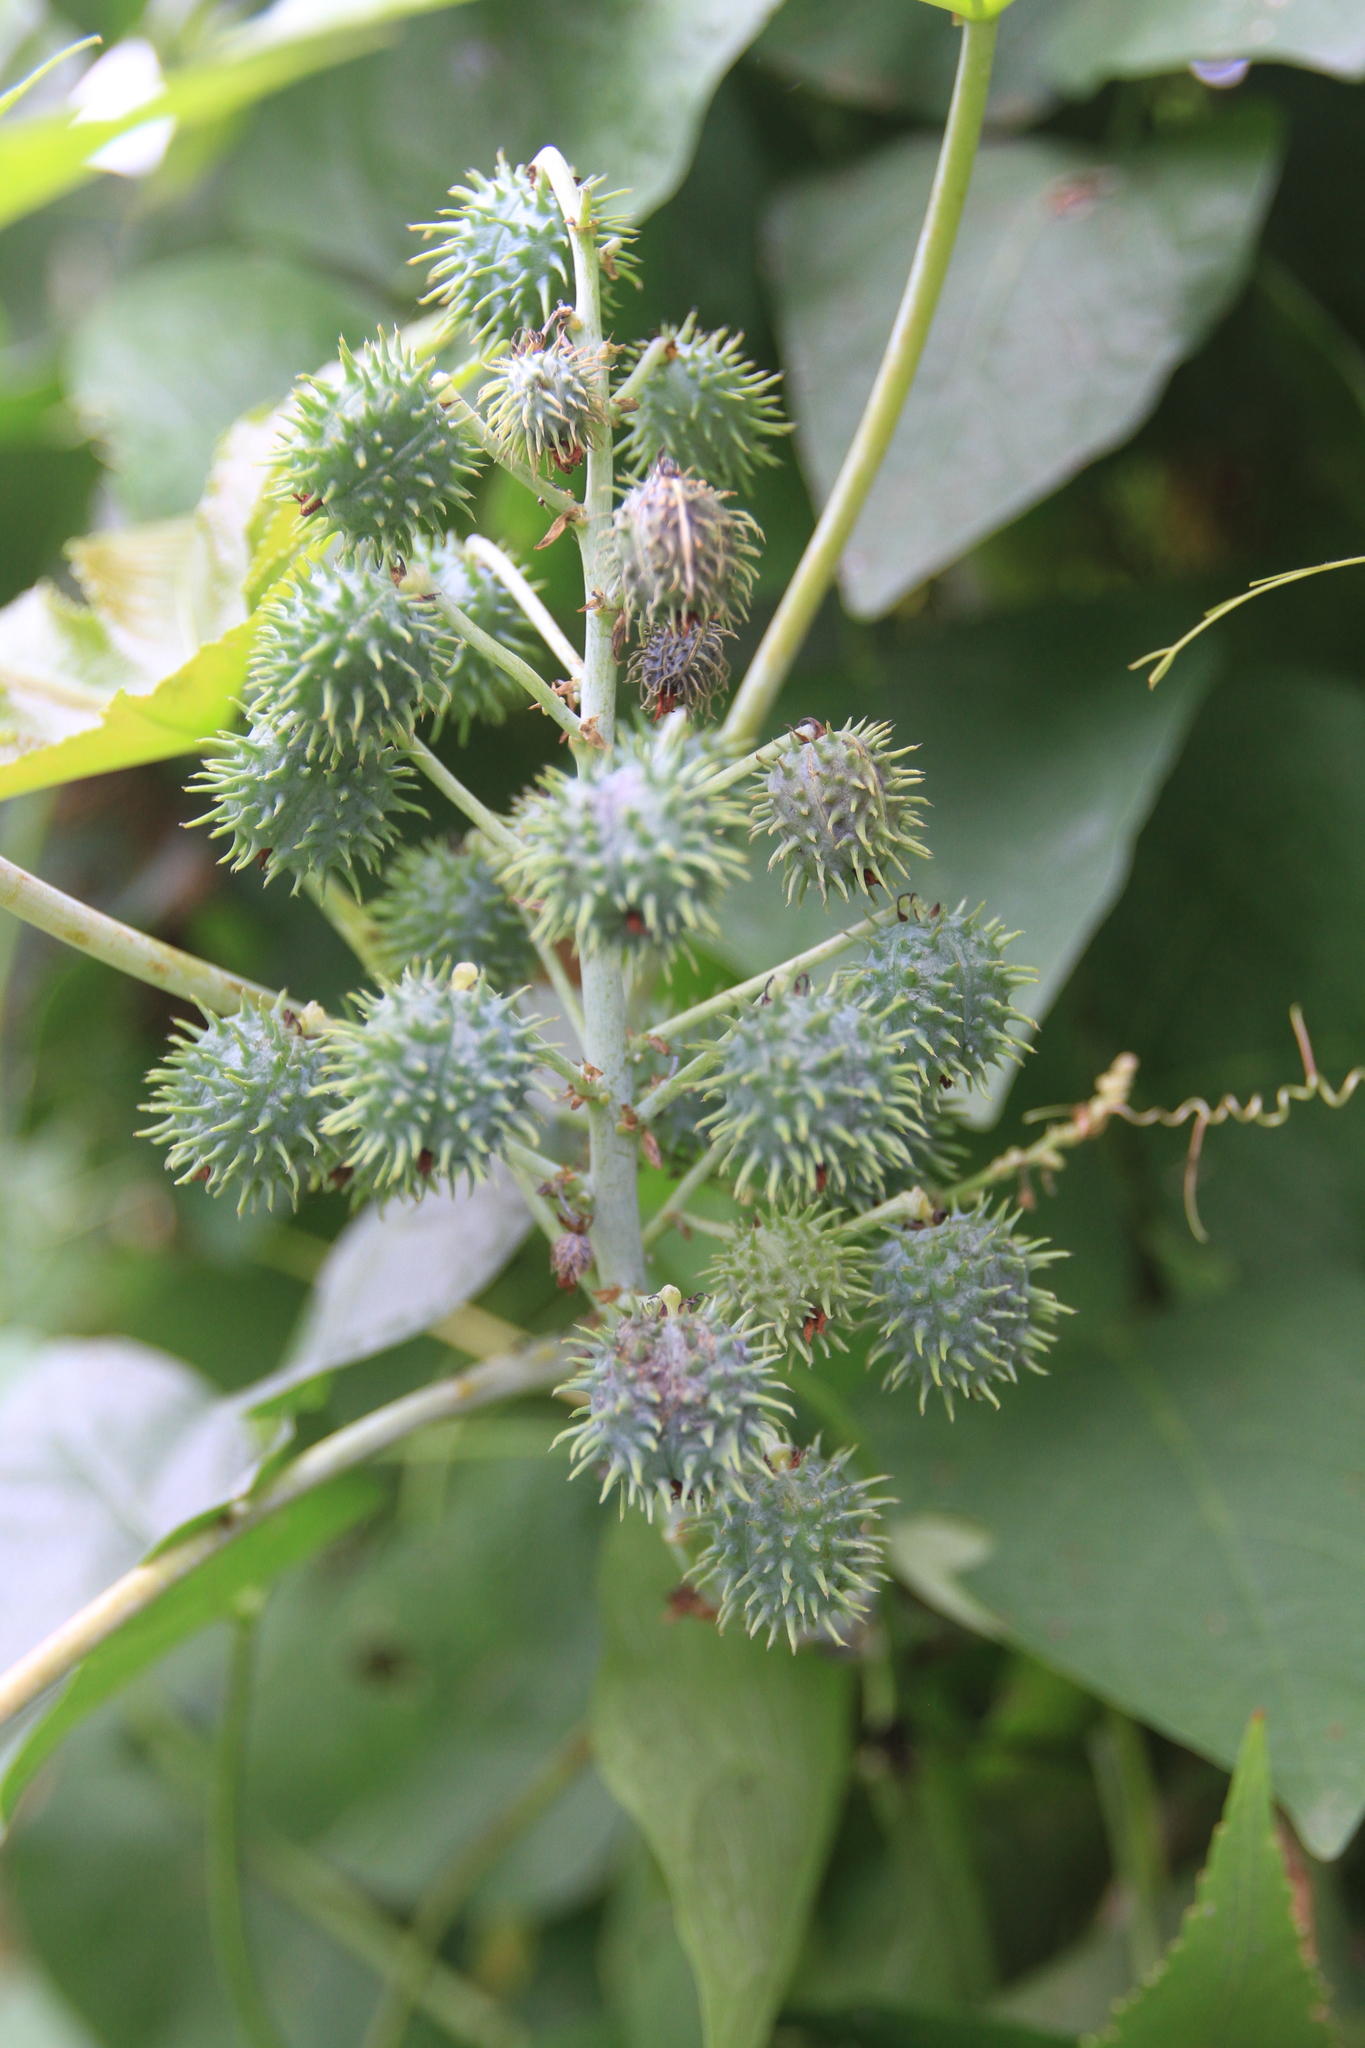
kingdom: Plantae
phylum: Tracheophyta
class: Magnoliopsida
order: Malpighiales
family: Euphorbiaceae
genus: Ricinus
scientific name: Ricinus communis
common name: Castor-oil-plant
